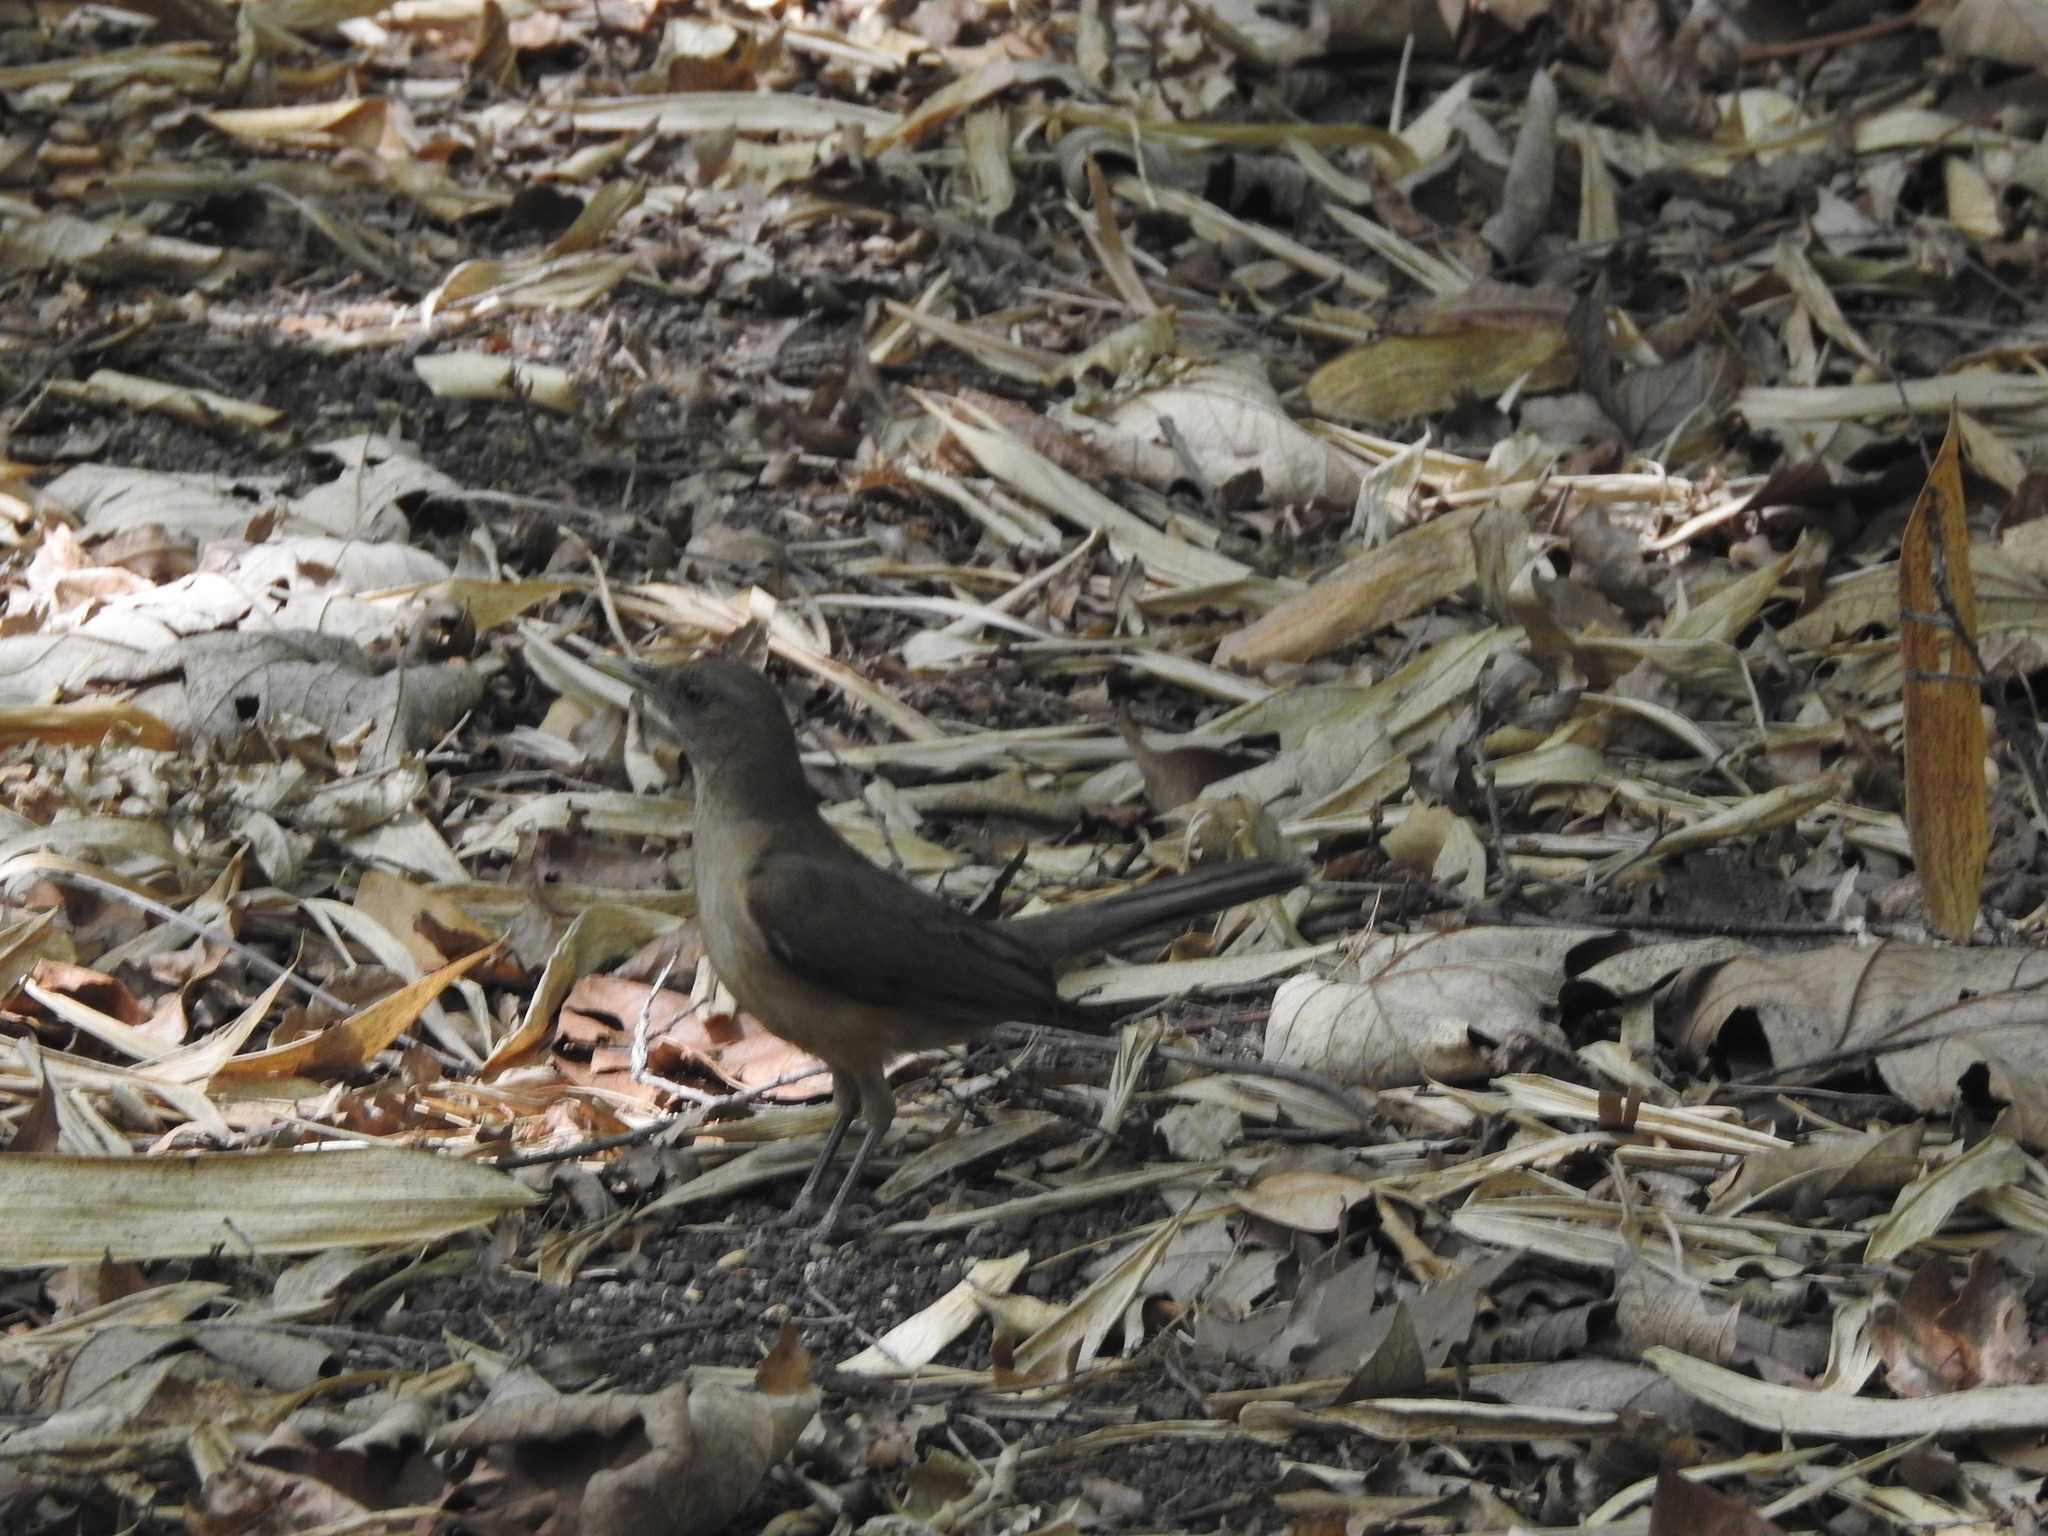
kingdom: Animalia
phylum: Chordata
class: Aves
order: Passeriformes
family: Turdidae
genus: Turdus
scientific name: Turdus grayi
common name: Clay-colored thrush
